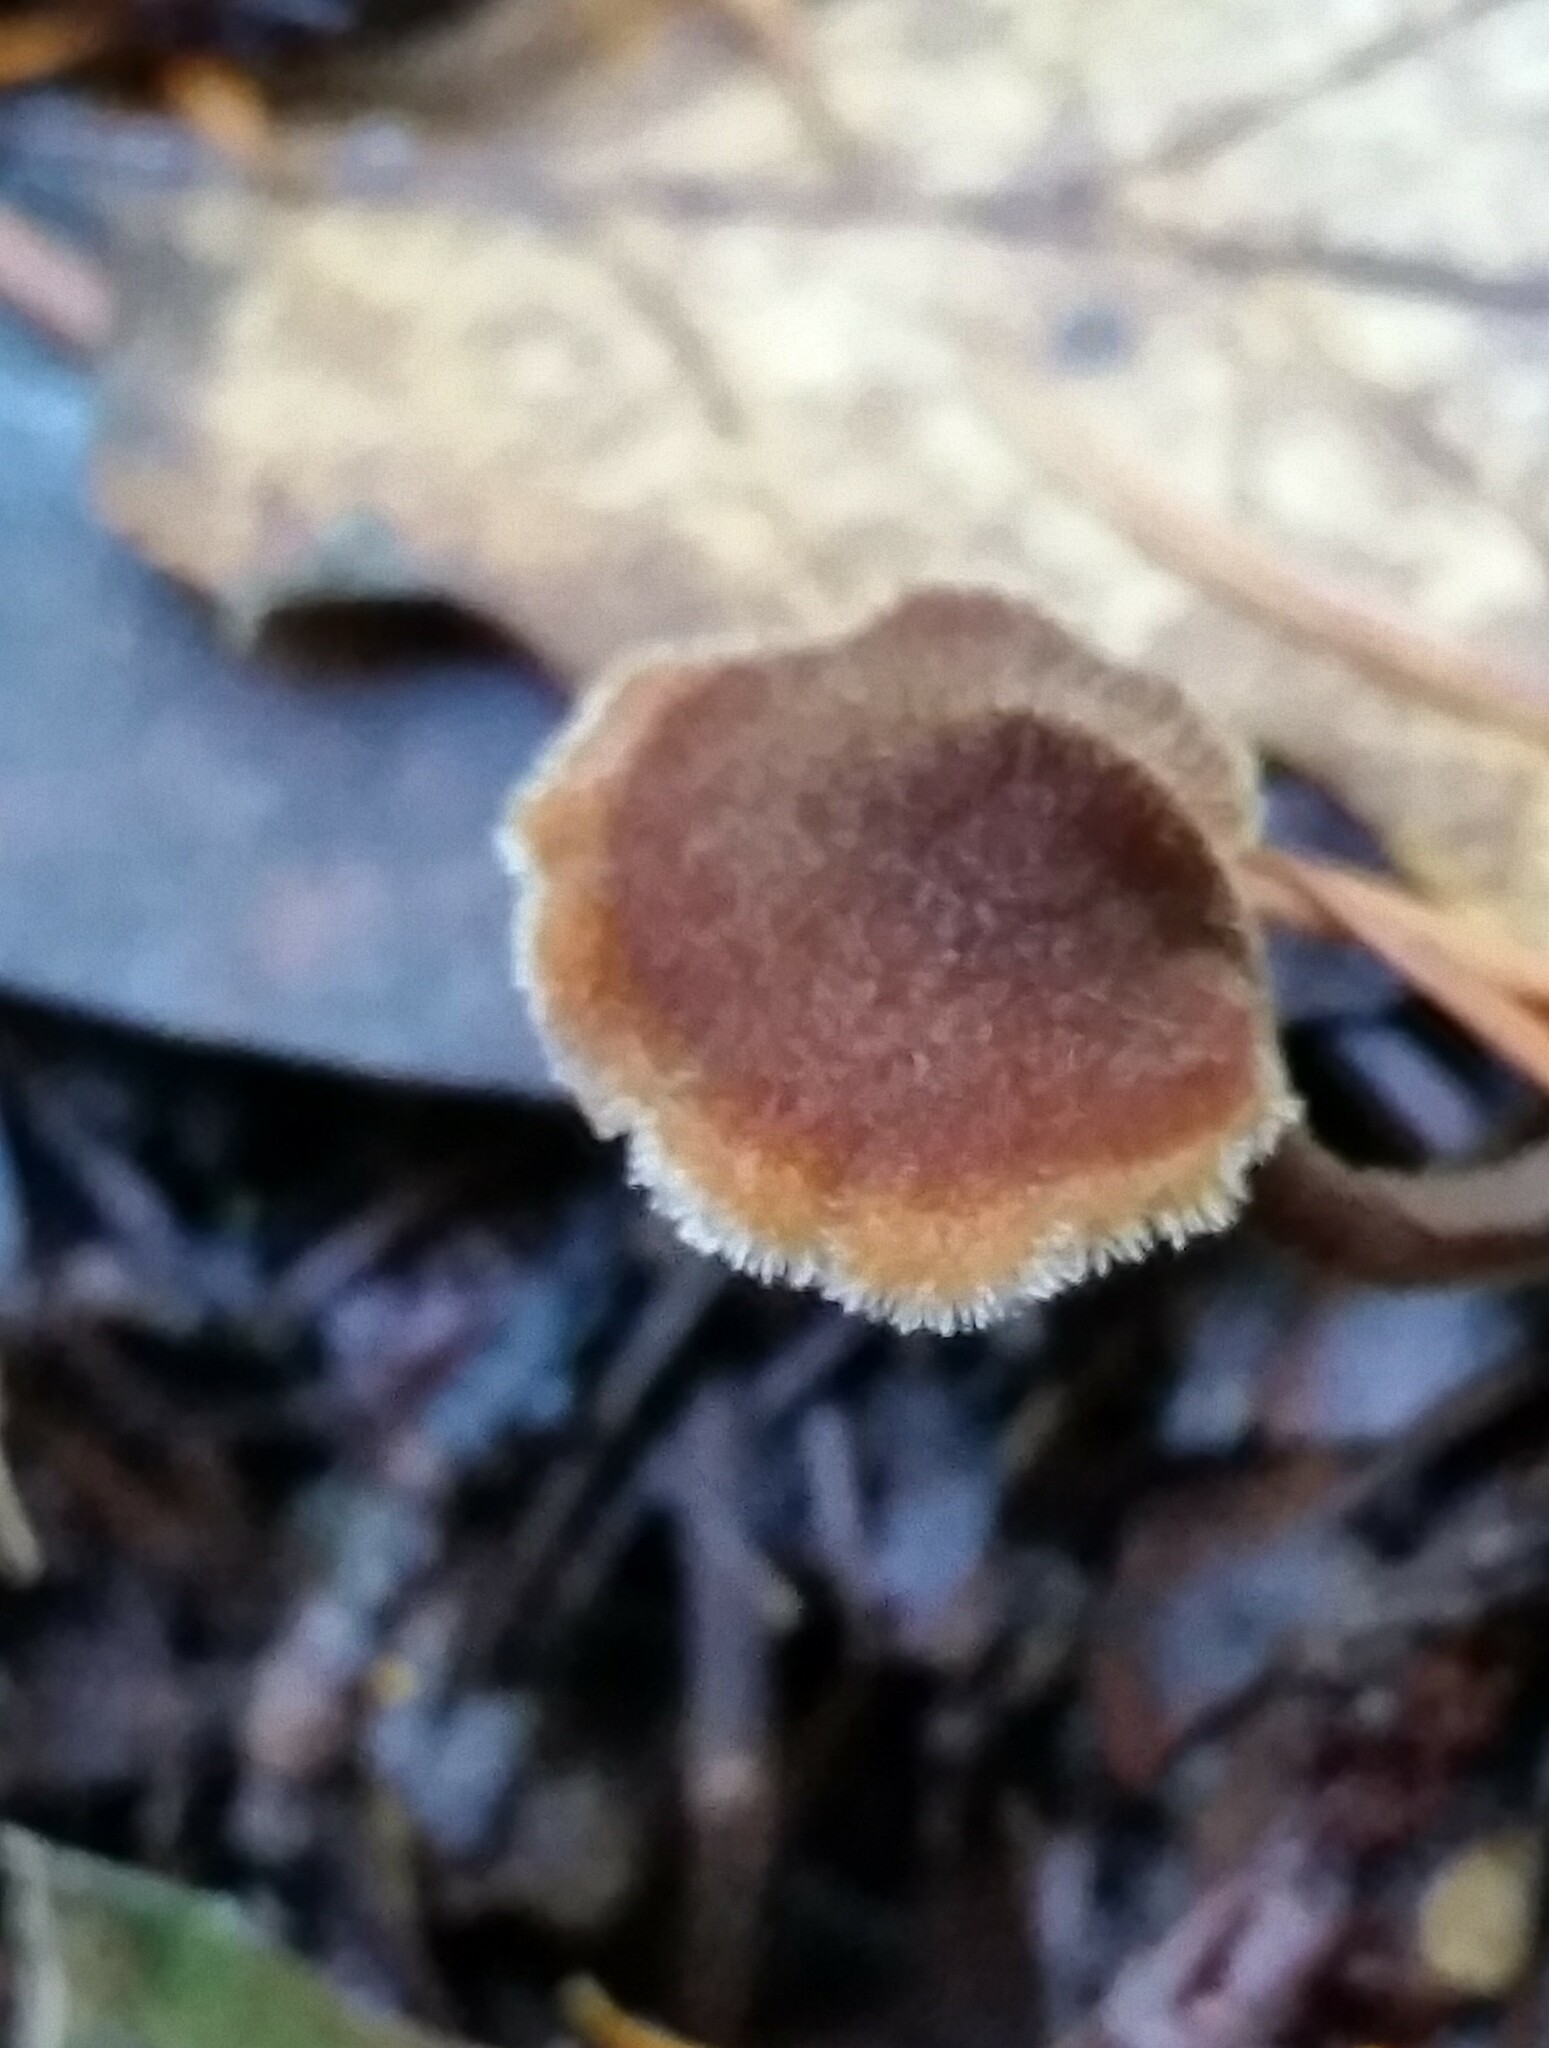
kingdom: Fungi
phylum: Basidiomycota
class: Agaricomycetes
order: Russulales
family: Auriscalpiaceae
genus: Auriscalpium
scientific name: Auriscalpium vulgare
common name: Earpick fungus
